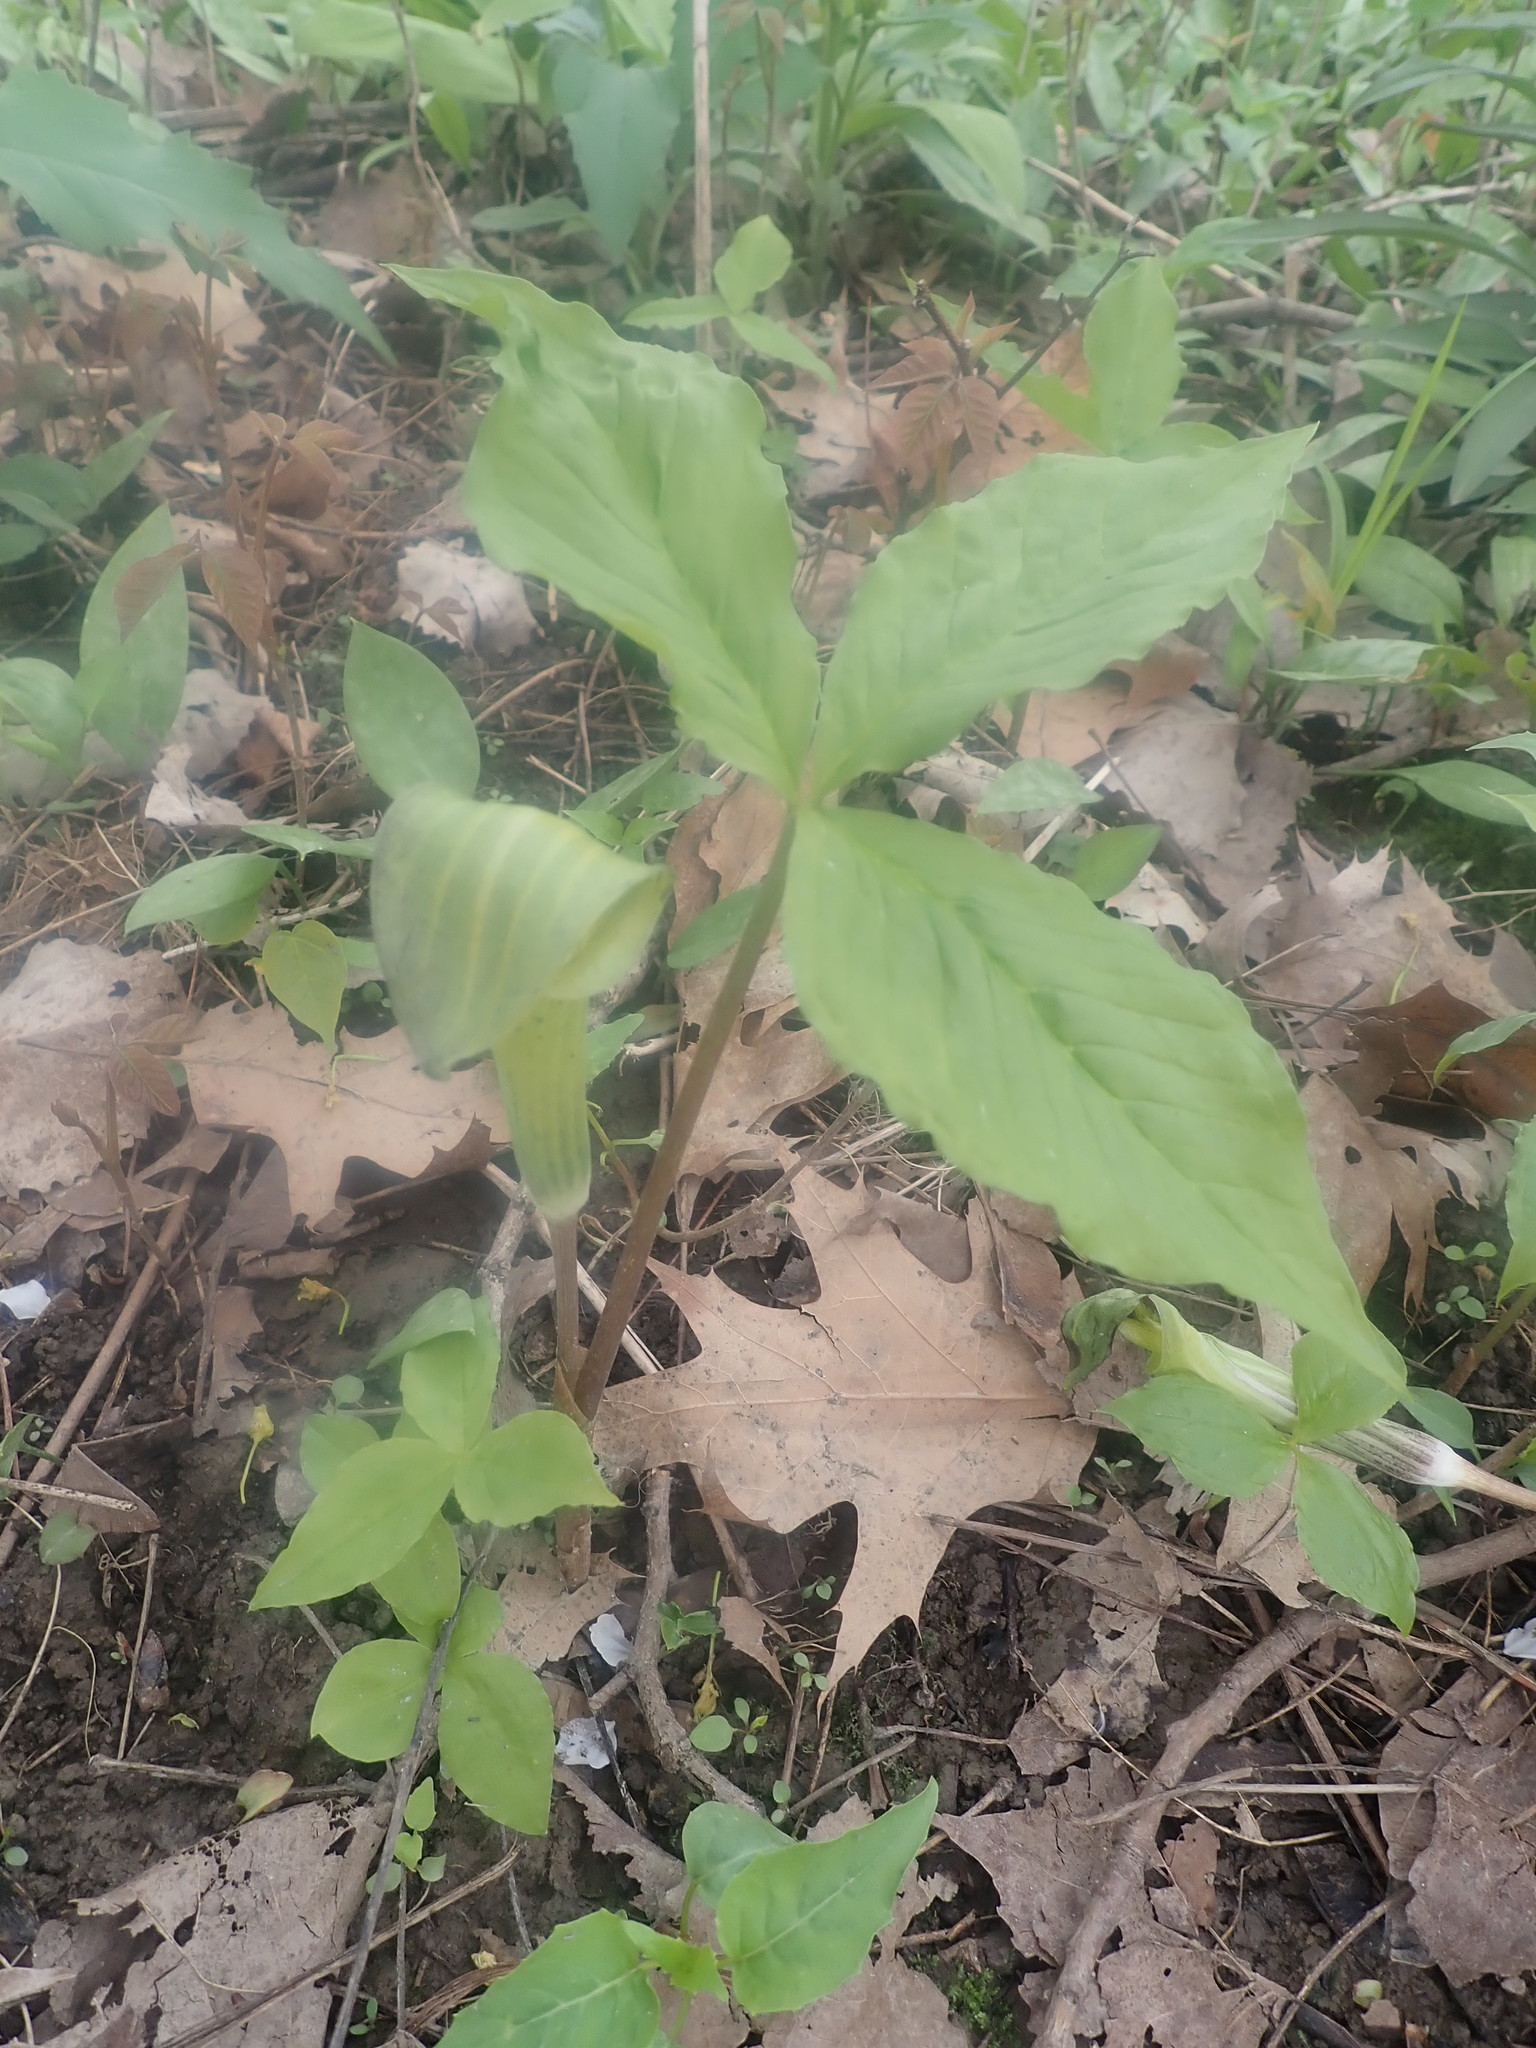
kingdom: Plantae
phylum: Tracheophyta
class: Liliopsida
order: Alismatales
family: Araceae
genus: Arisaema
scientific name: Arisaema triphyllum
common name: Jack-in-the-pulpit
